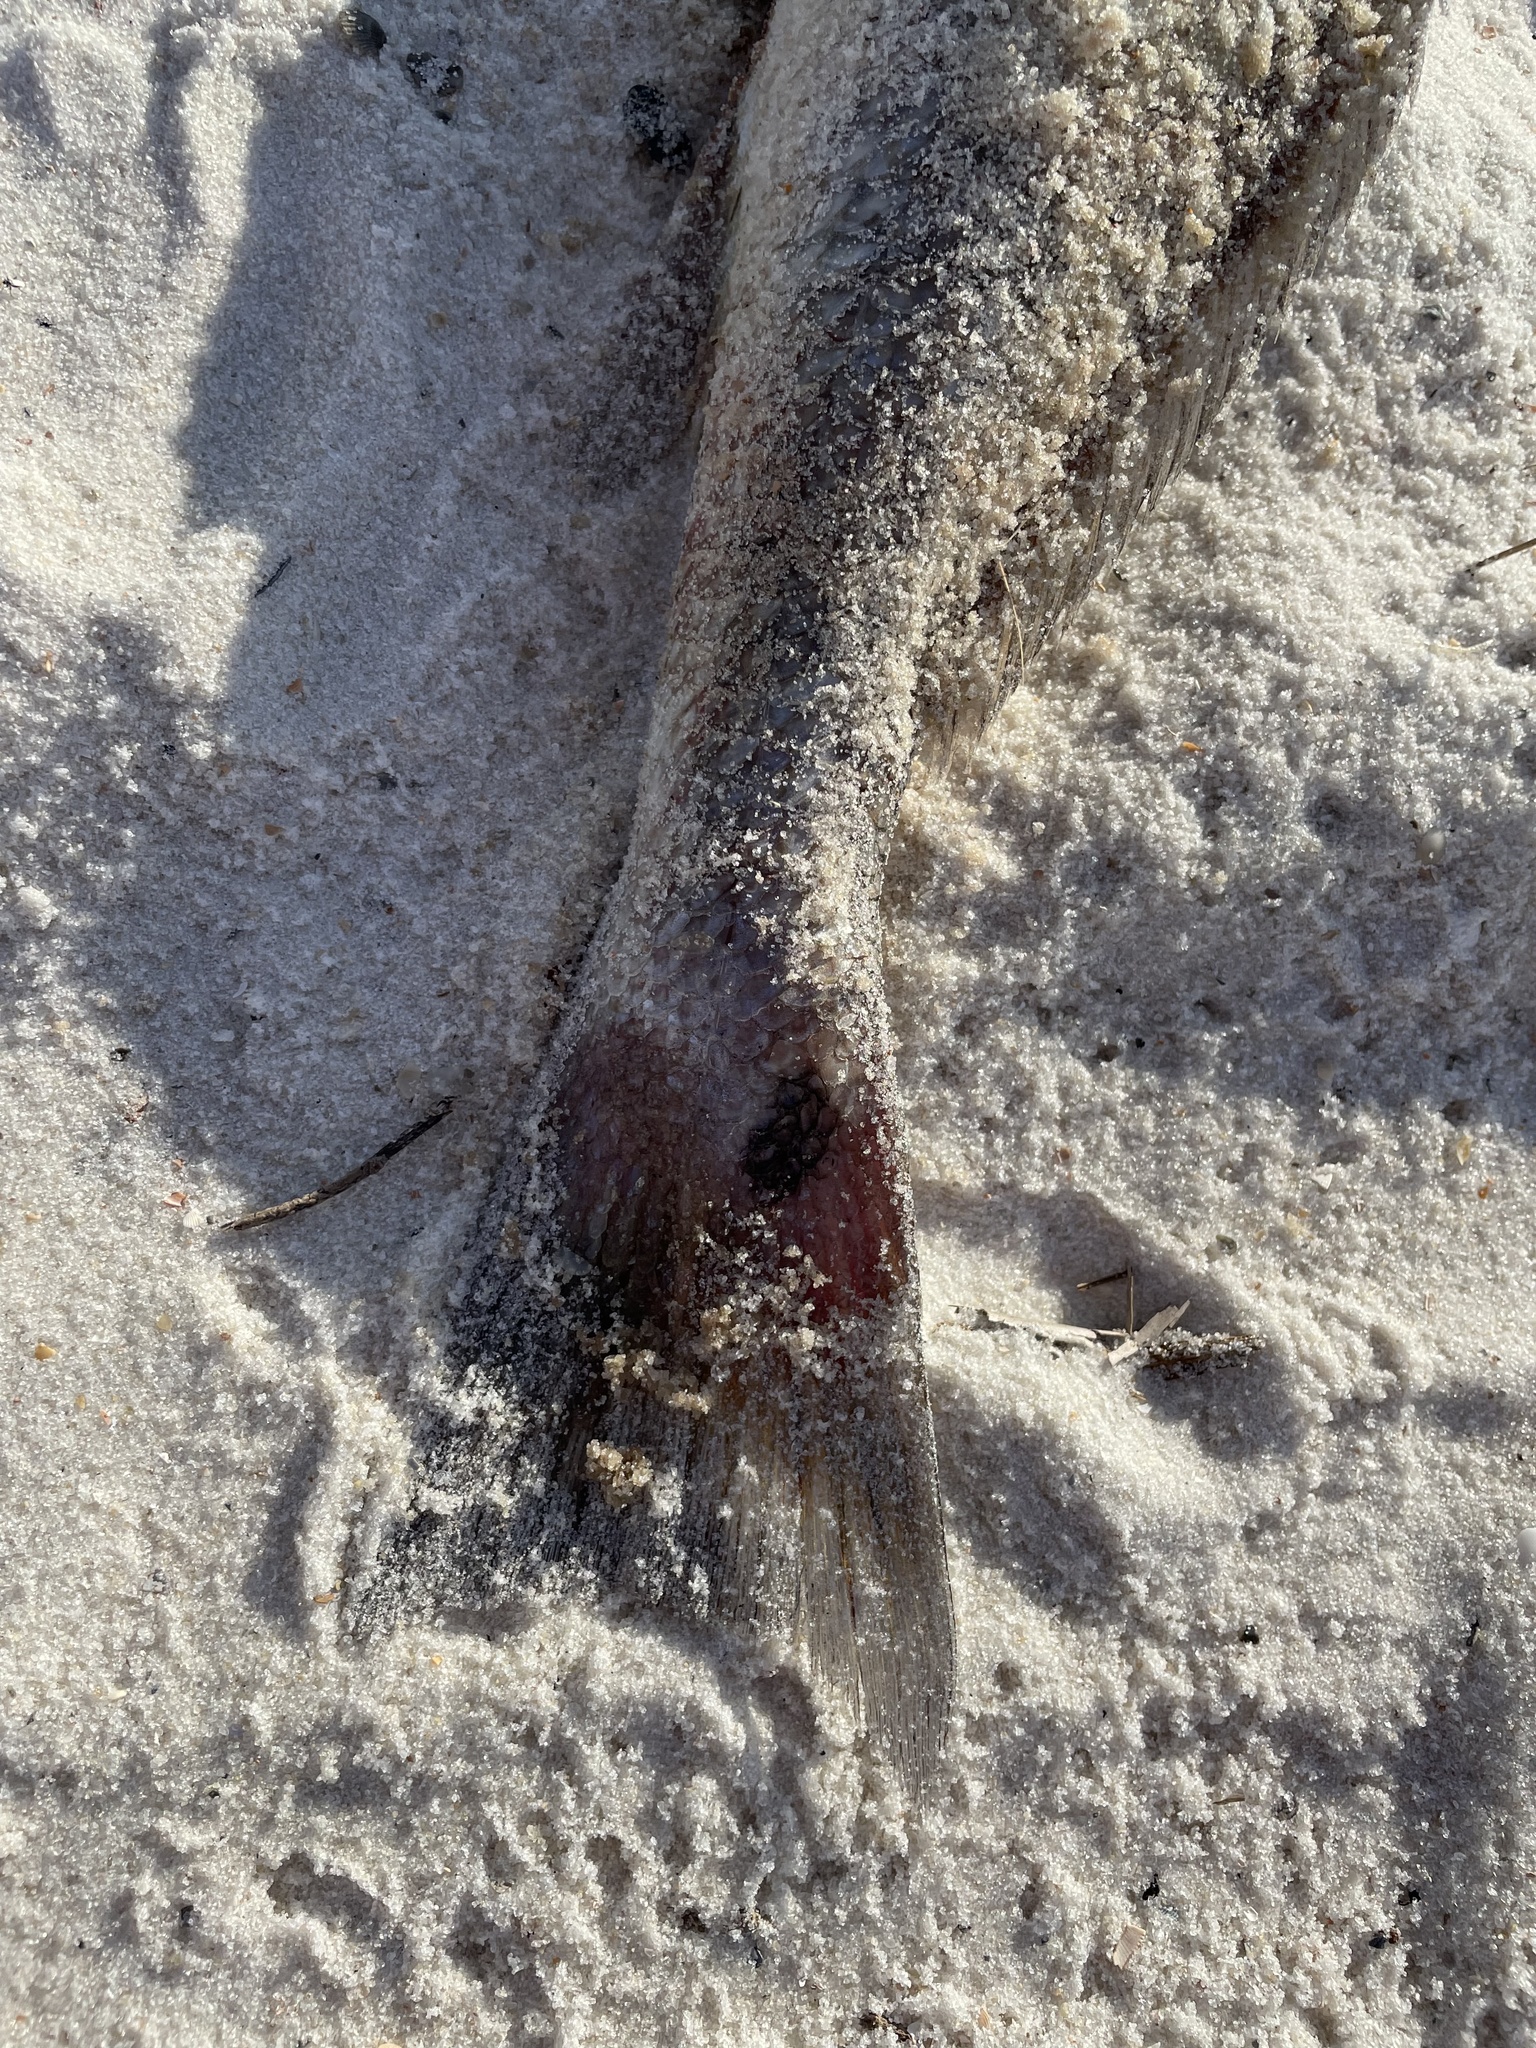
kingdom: Animalia
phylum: Chordata
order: Perciformes
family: Sciaenidae
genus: Sciaenops
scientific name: Sciaenops ocellatus
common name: Red drum
